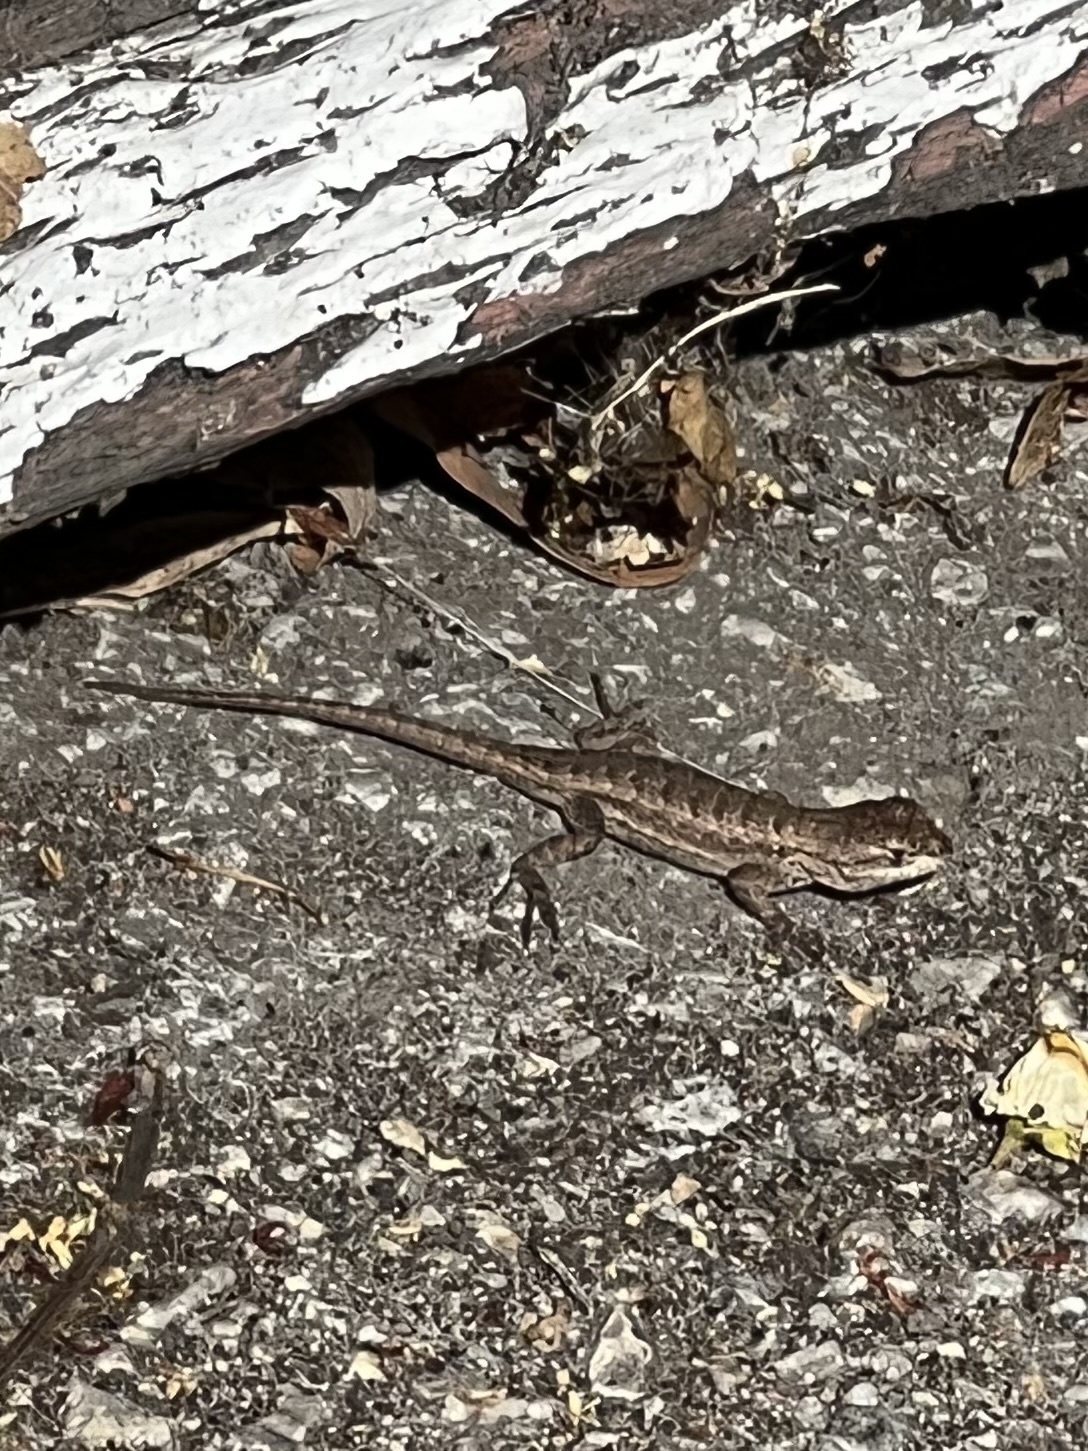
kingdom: Animalia
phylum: Chordata
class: Squamata
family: Phrynosomatidae
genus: Sceloporus
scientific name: Sceloporus occidentalis
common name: Western fence lizard
